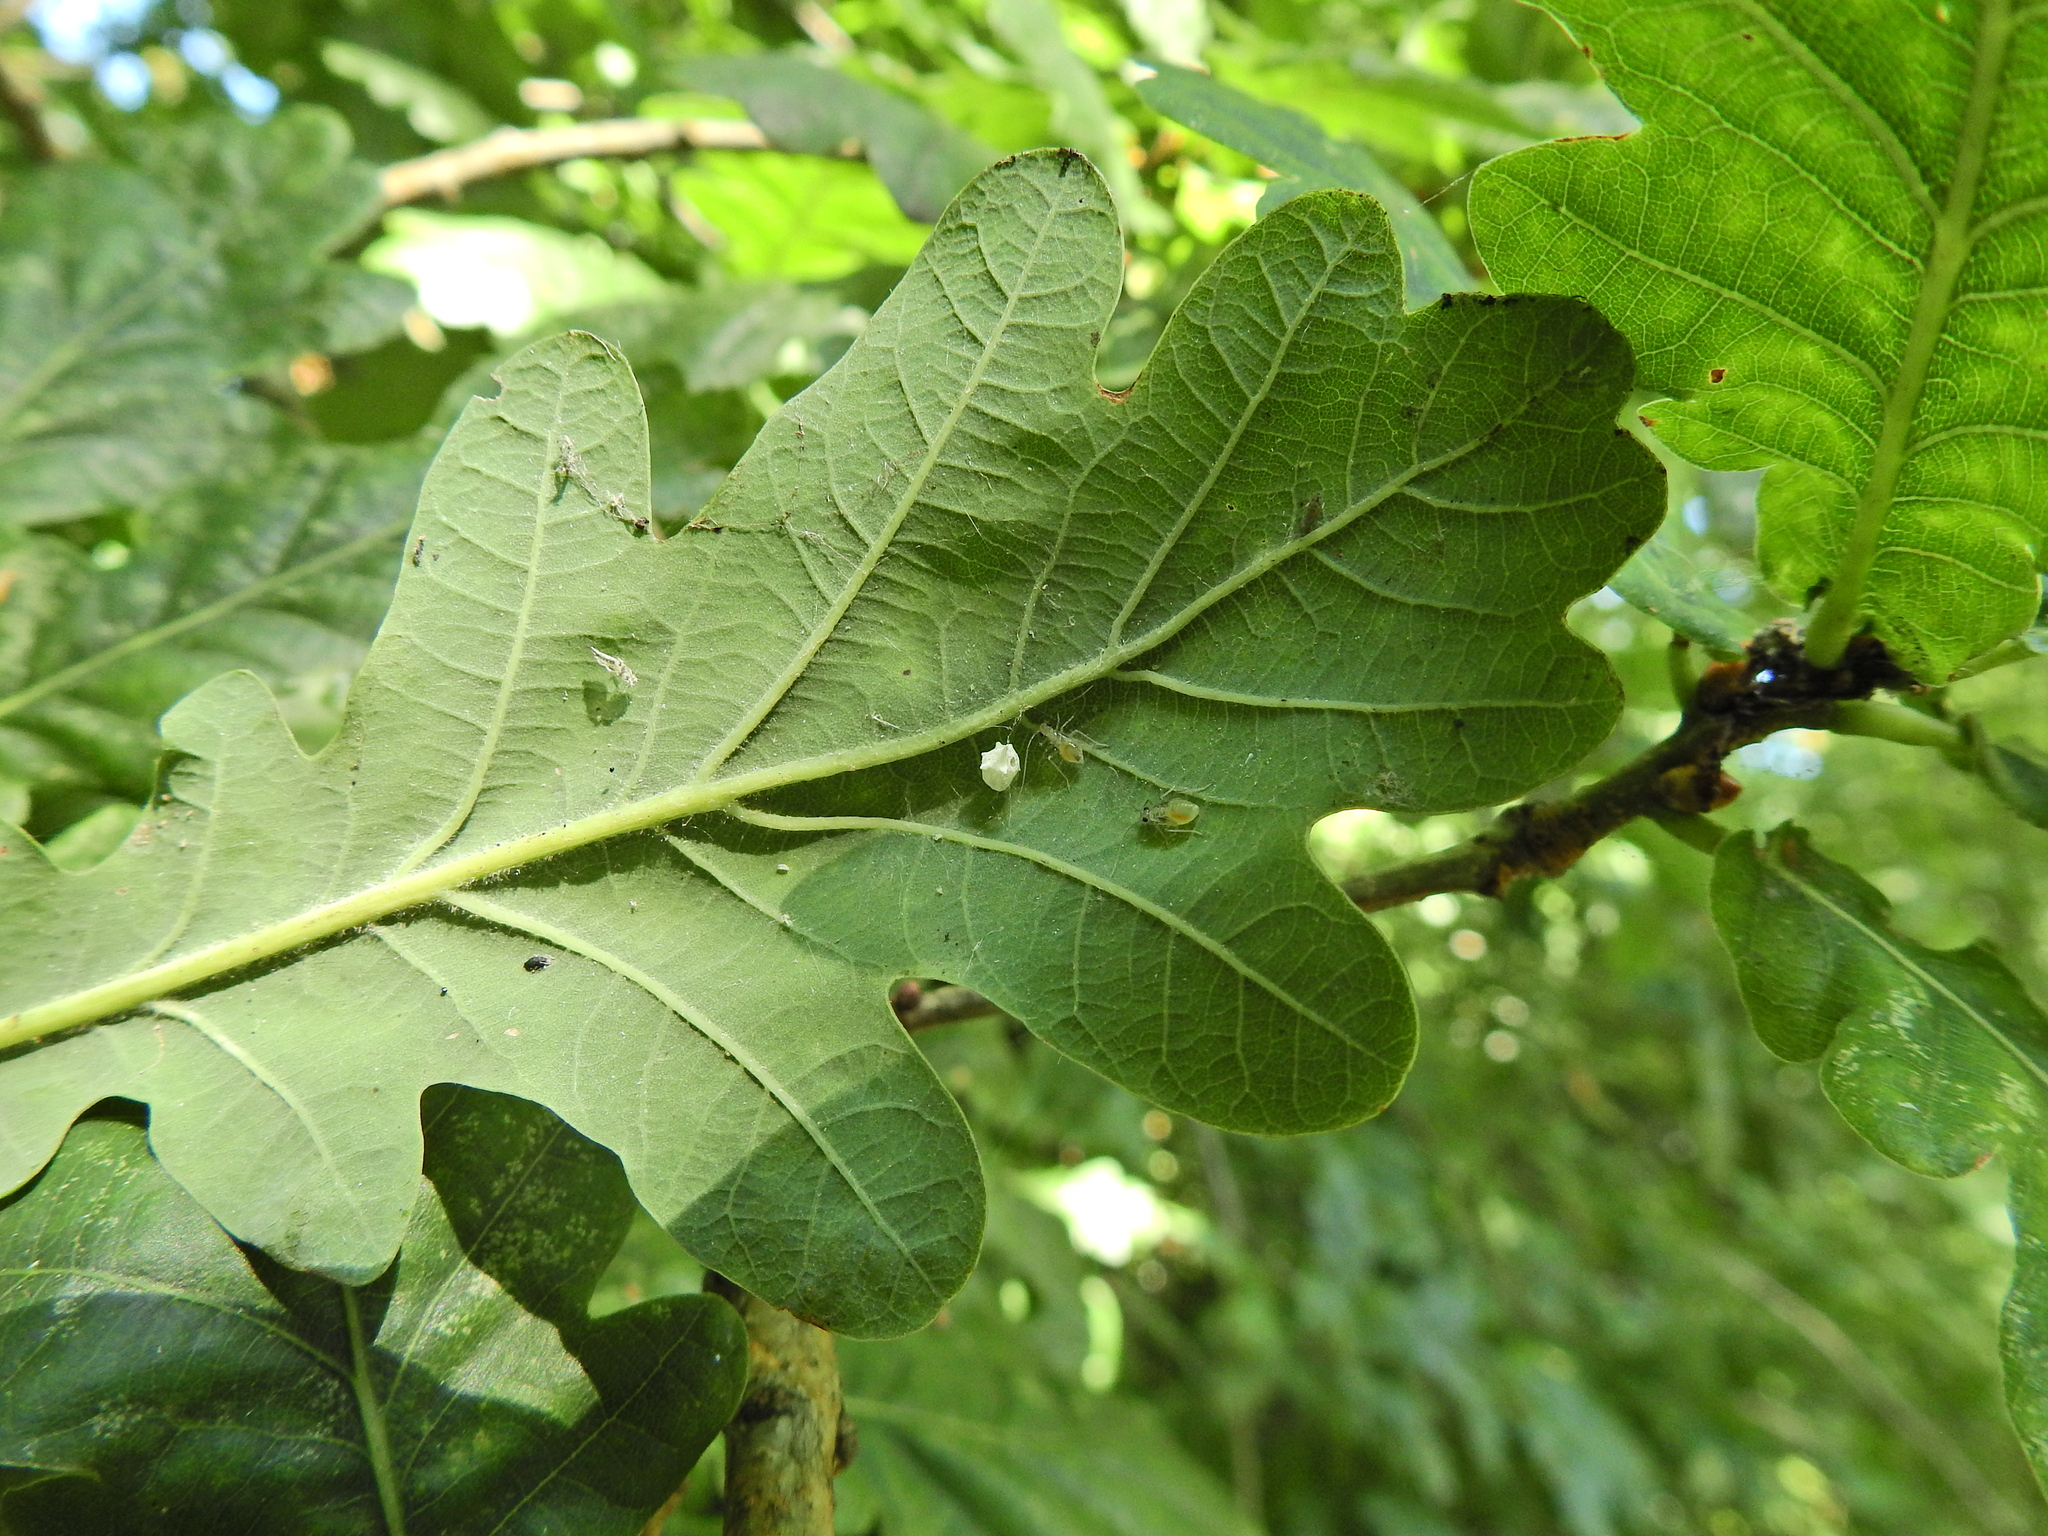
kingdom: Animalia
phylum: Arthropoda
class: Arachnida
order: Araneae
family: Theridiidae
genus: Paidiscura
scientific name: Paidiscura pallens
